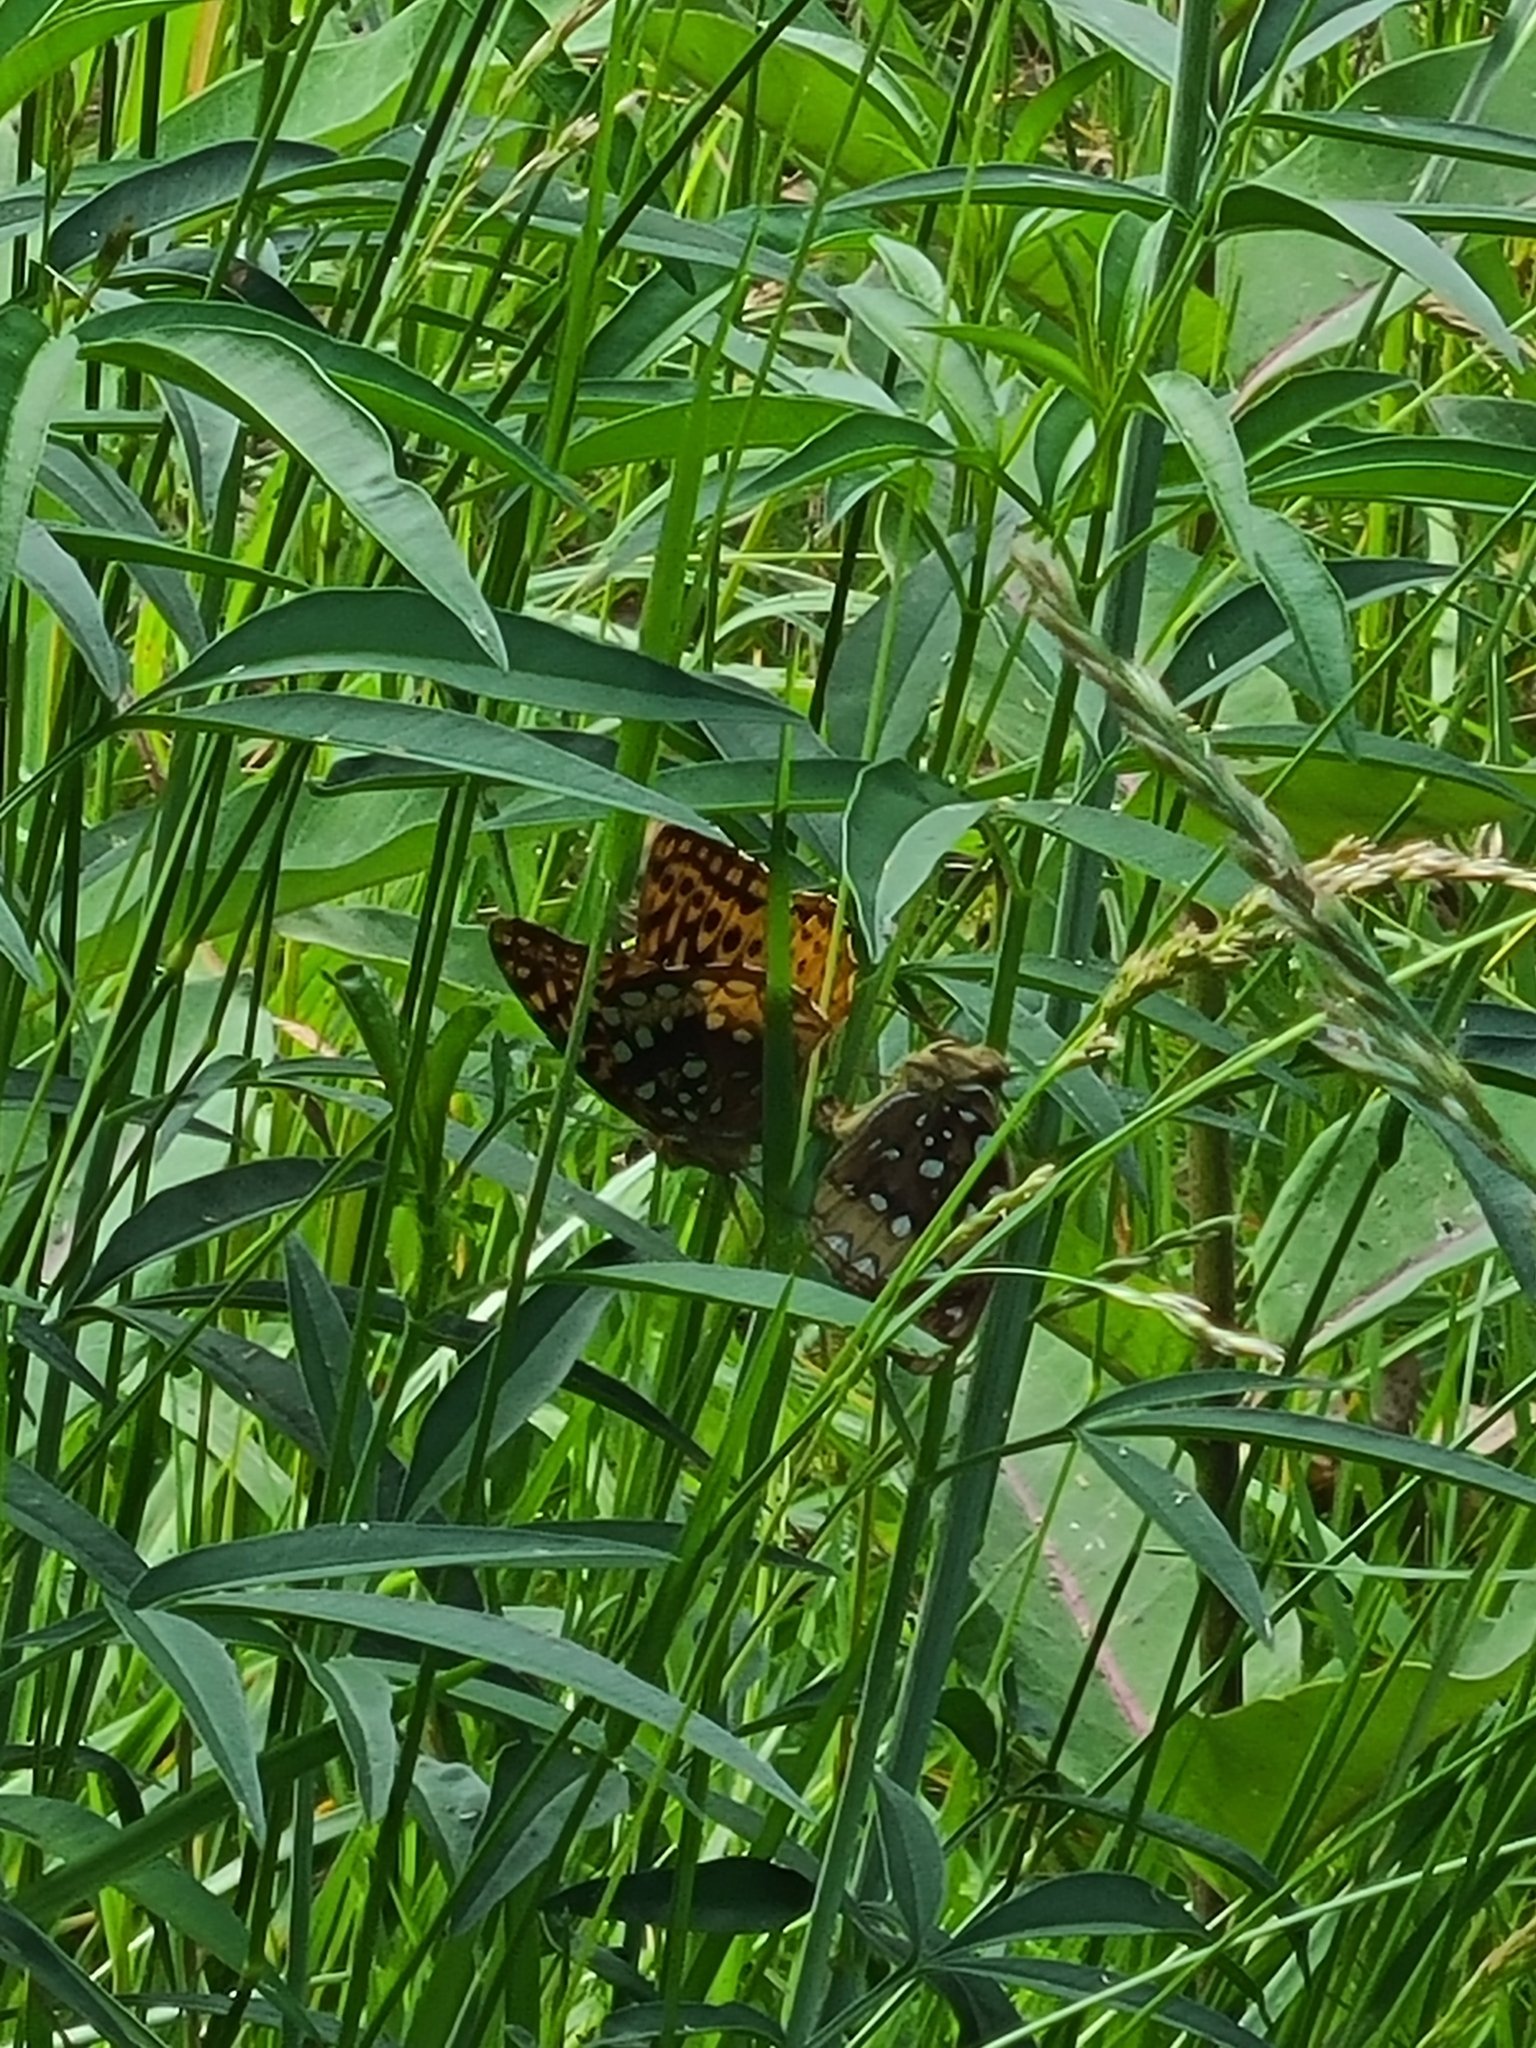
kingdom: Animalia
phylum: Arthropoda
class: Insecta
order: Lepidoptera
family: Nymphalidae
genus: Speyeria
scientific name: Speyeria cybele
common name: Great spangled fritillary
